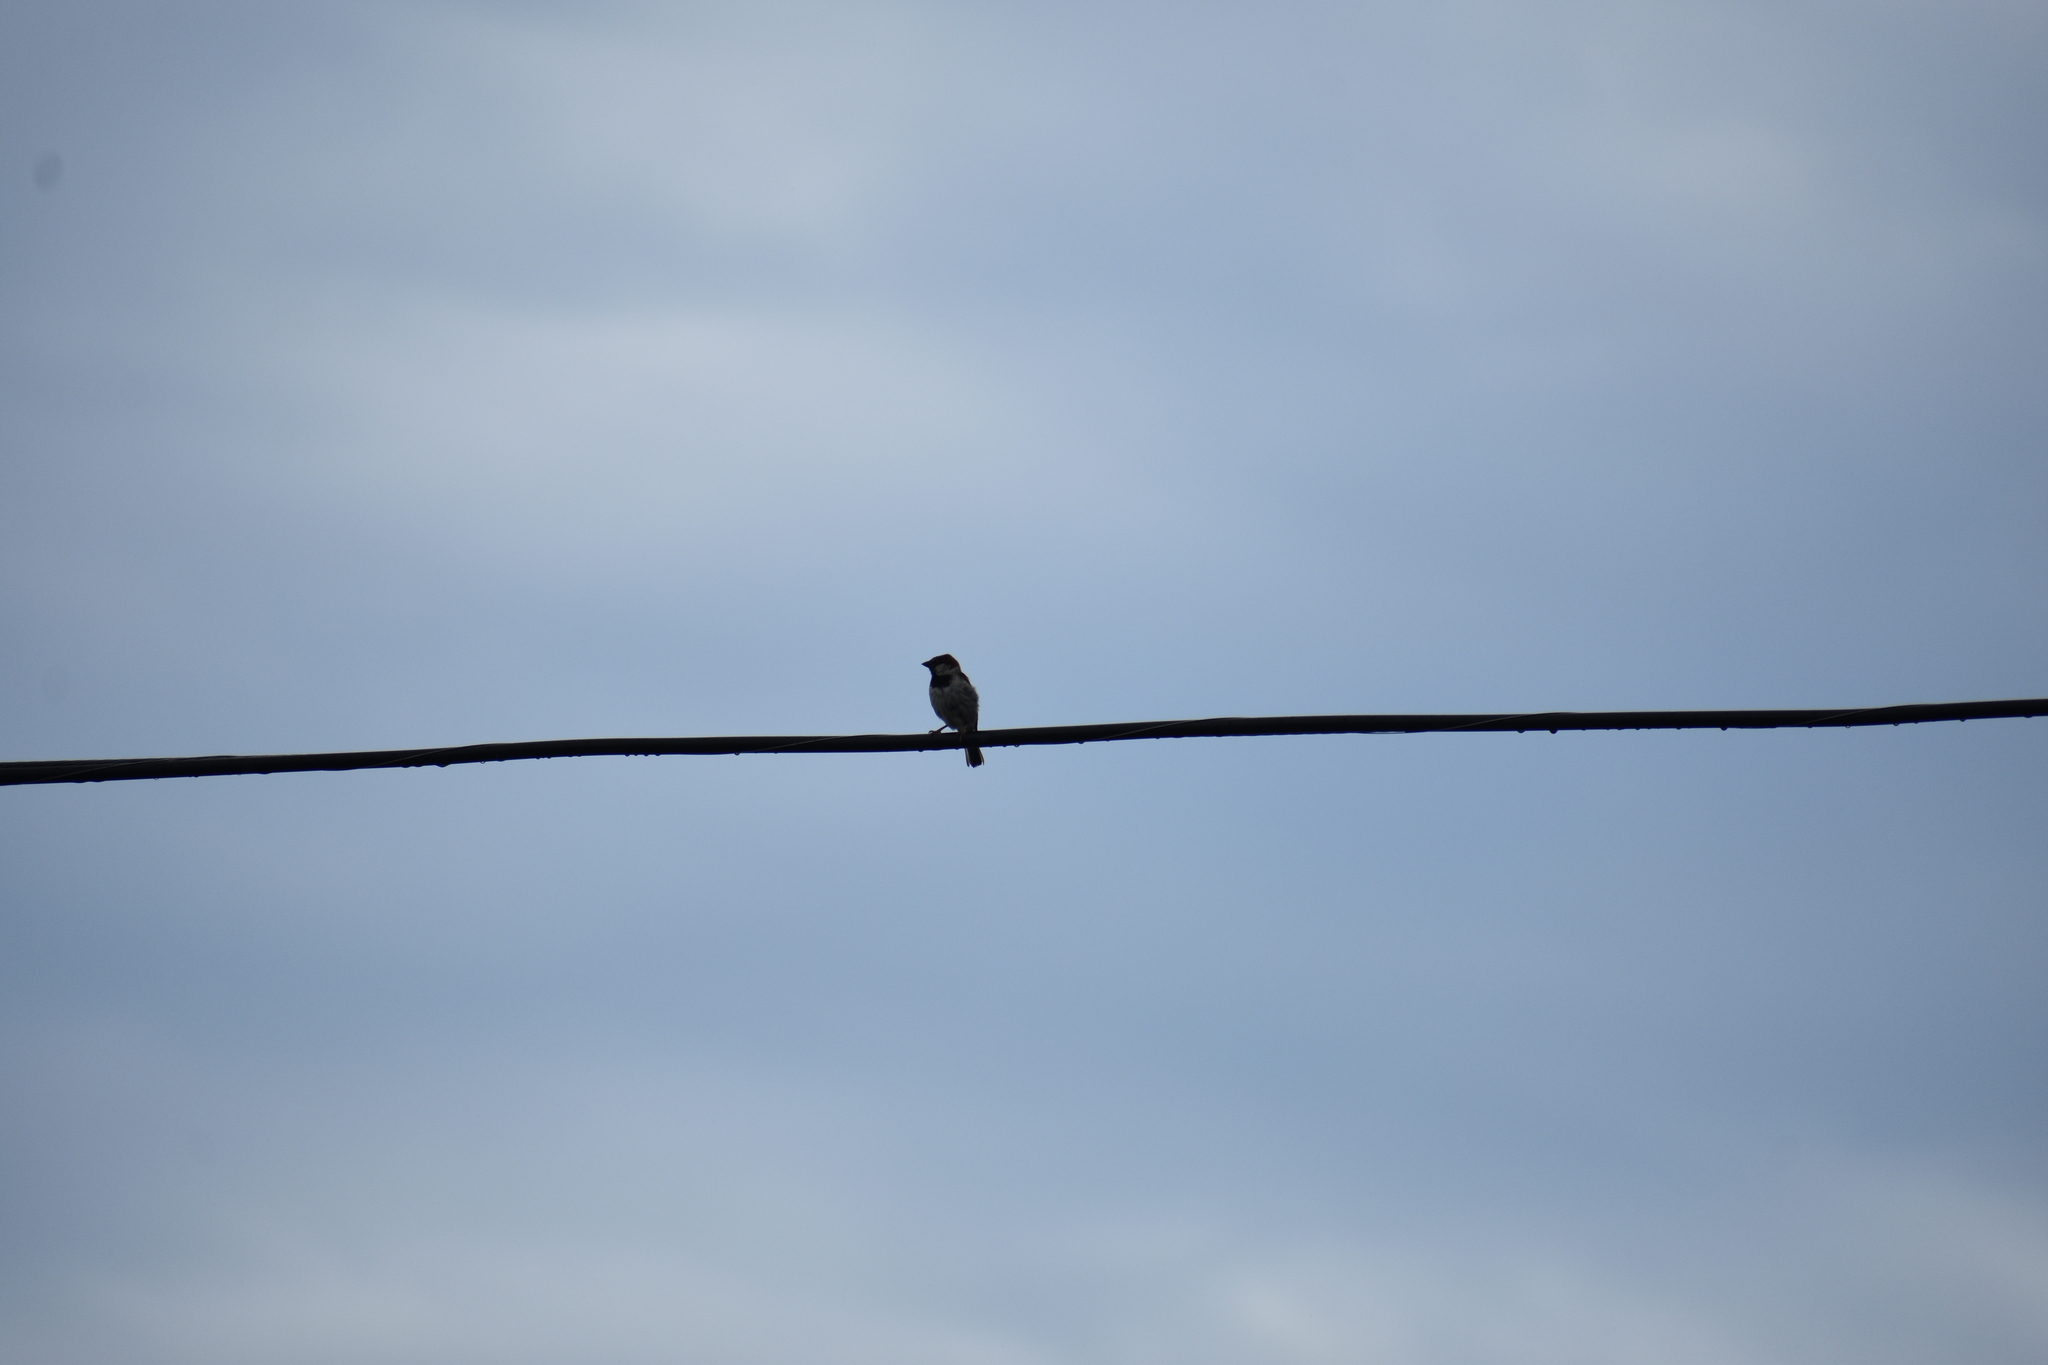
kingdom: Animalia
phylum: Chordata
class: Aves
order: Passeriformes
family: Passeridae
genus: Passer
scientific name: Passer domesticus
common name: House sparrow
